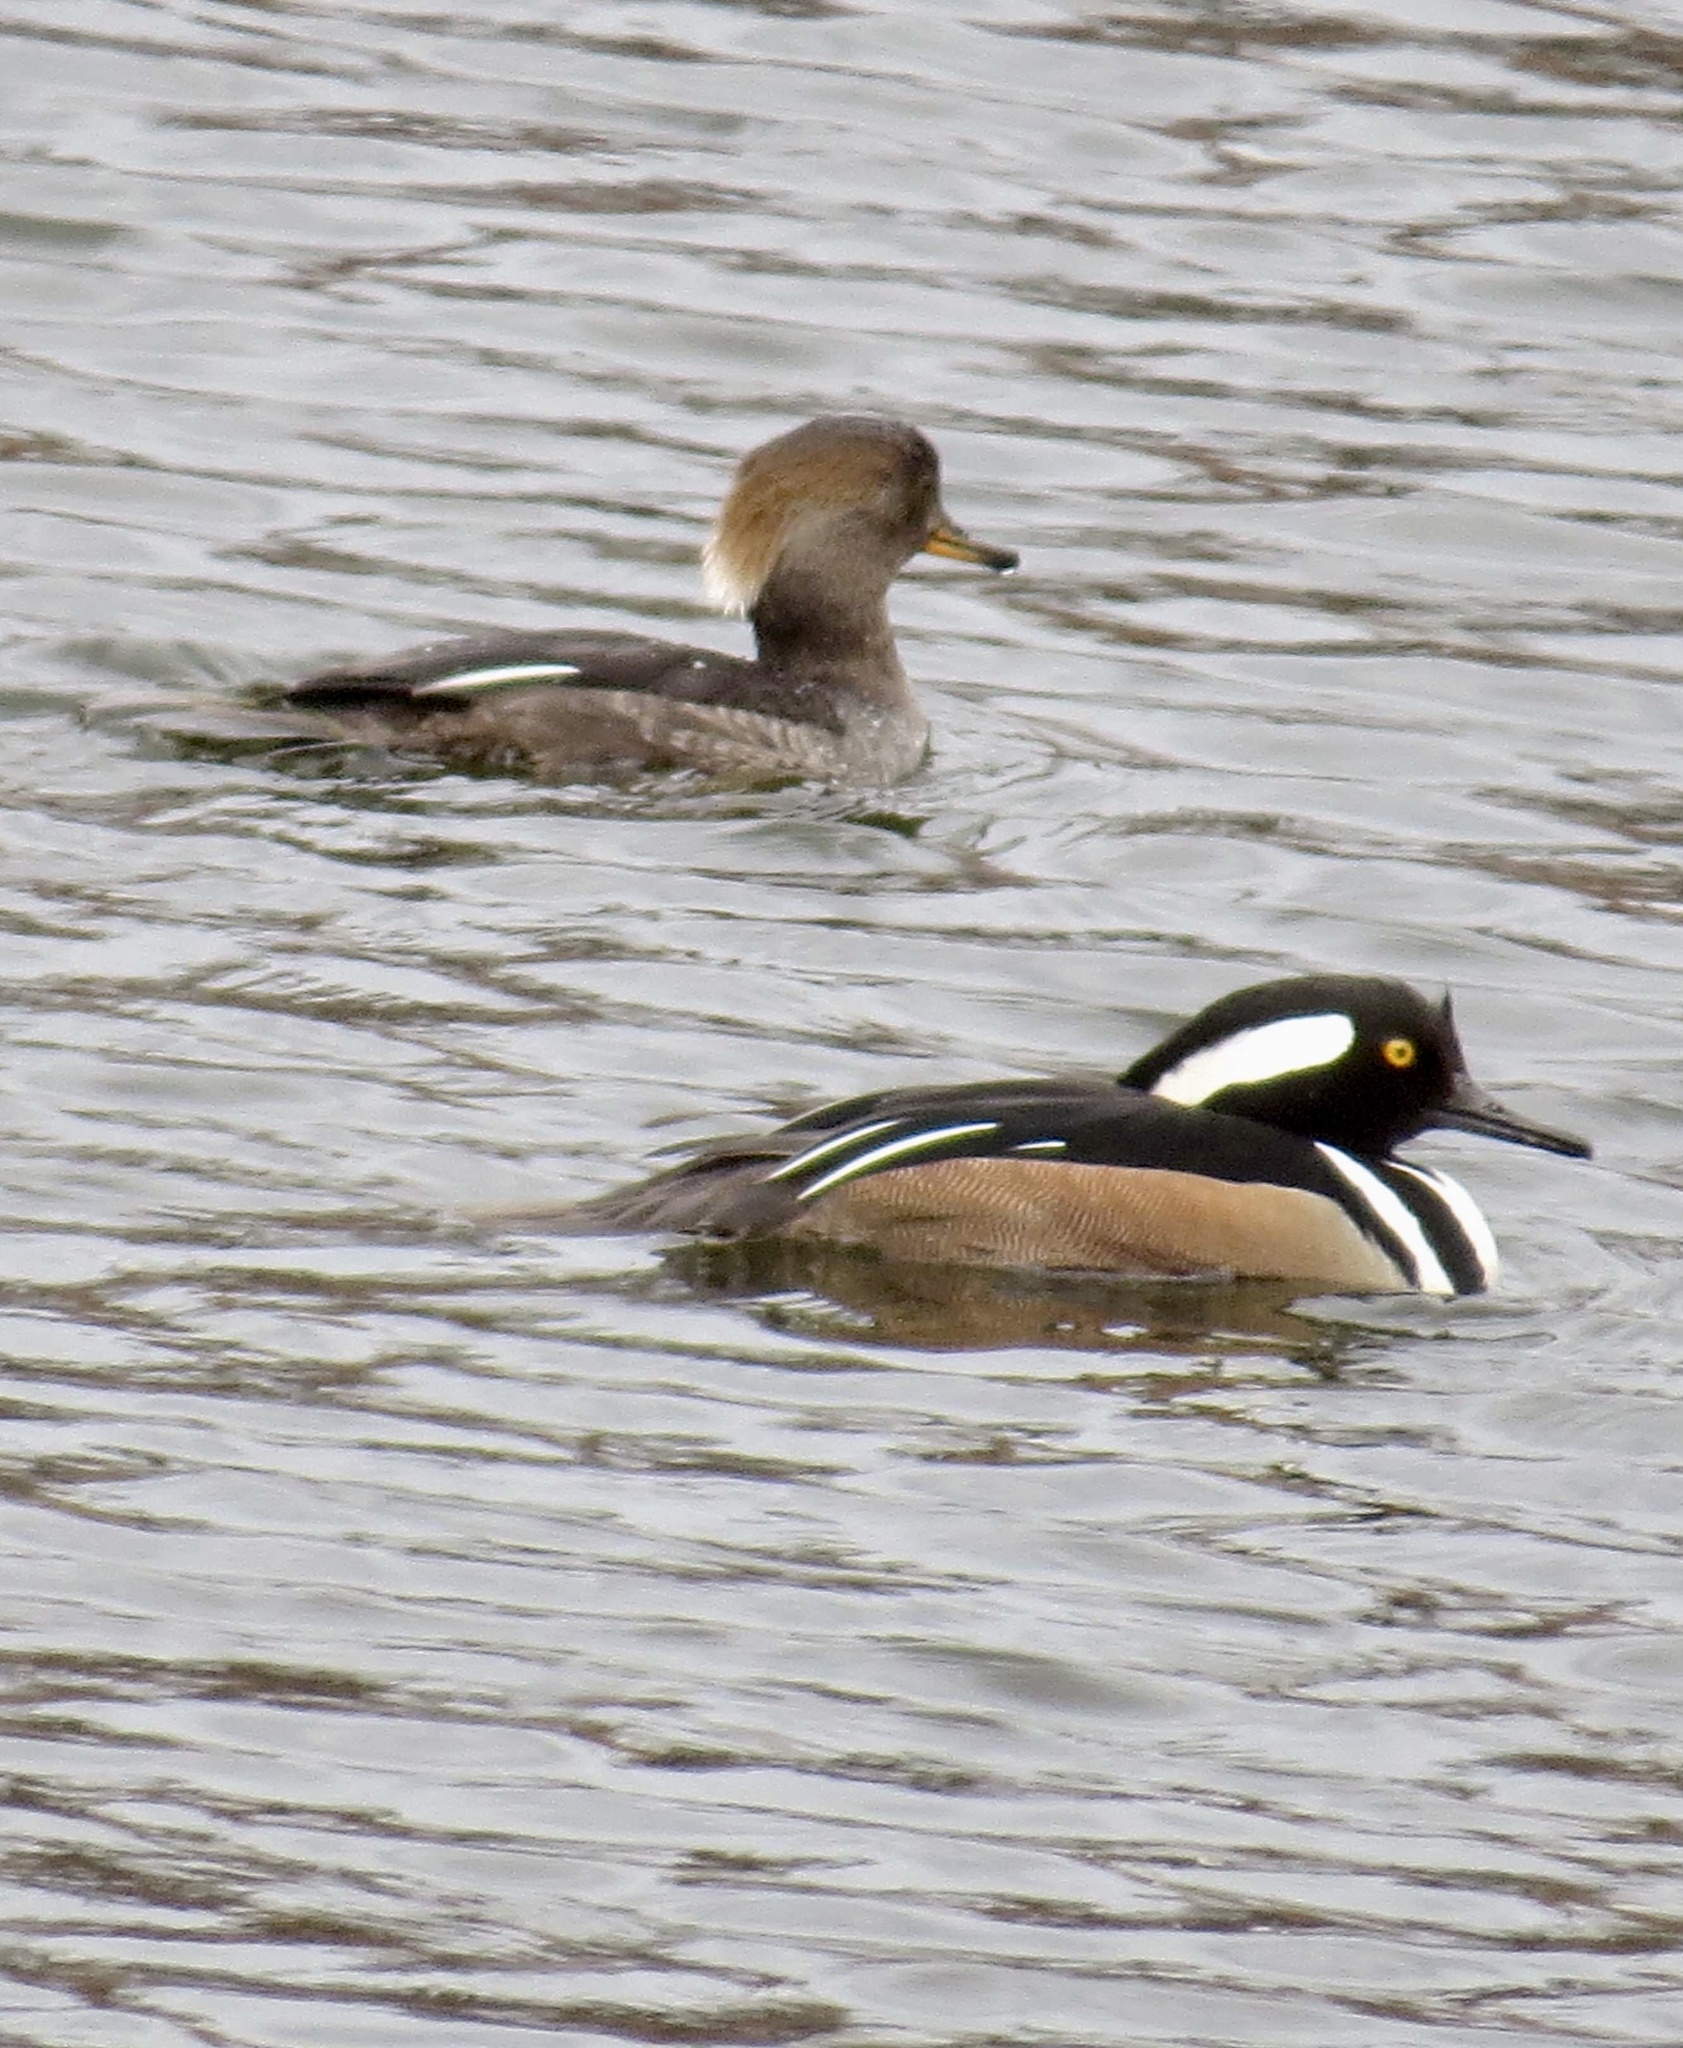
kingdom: Animalia
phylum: Chordata
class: Aves
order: Anseriformes
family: Anatidae
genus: Lophodytes
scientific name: Lophodytes cucullatus
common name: Hooded merganser
